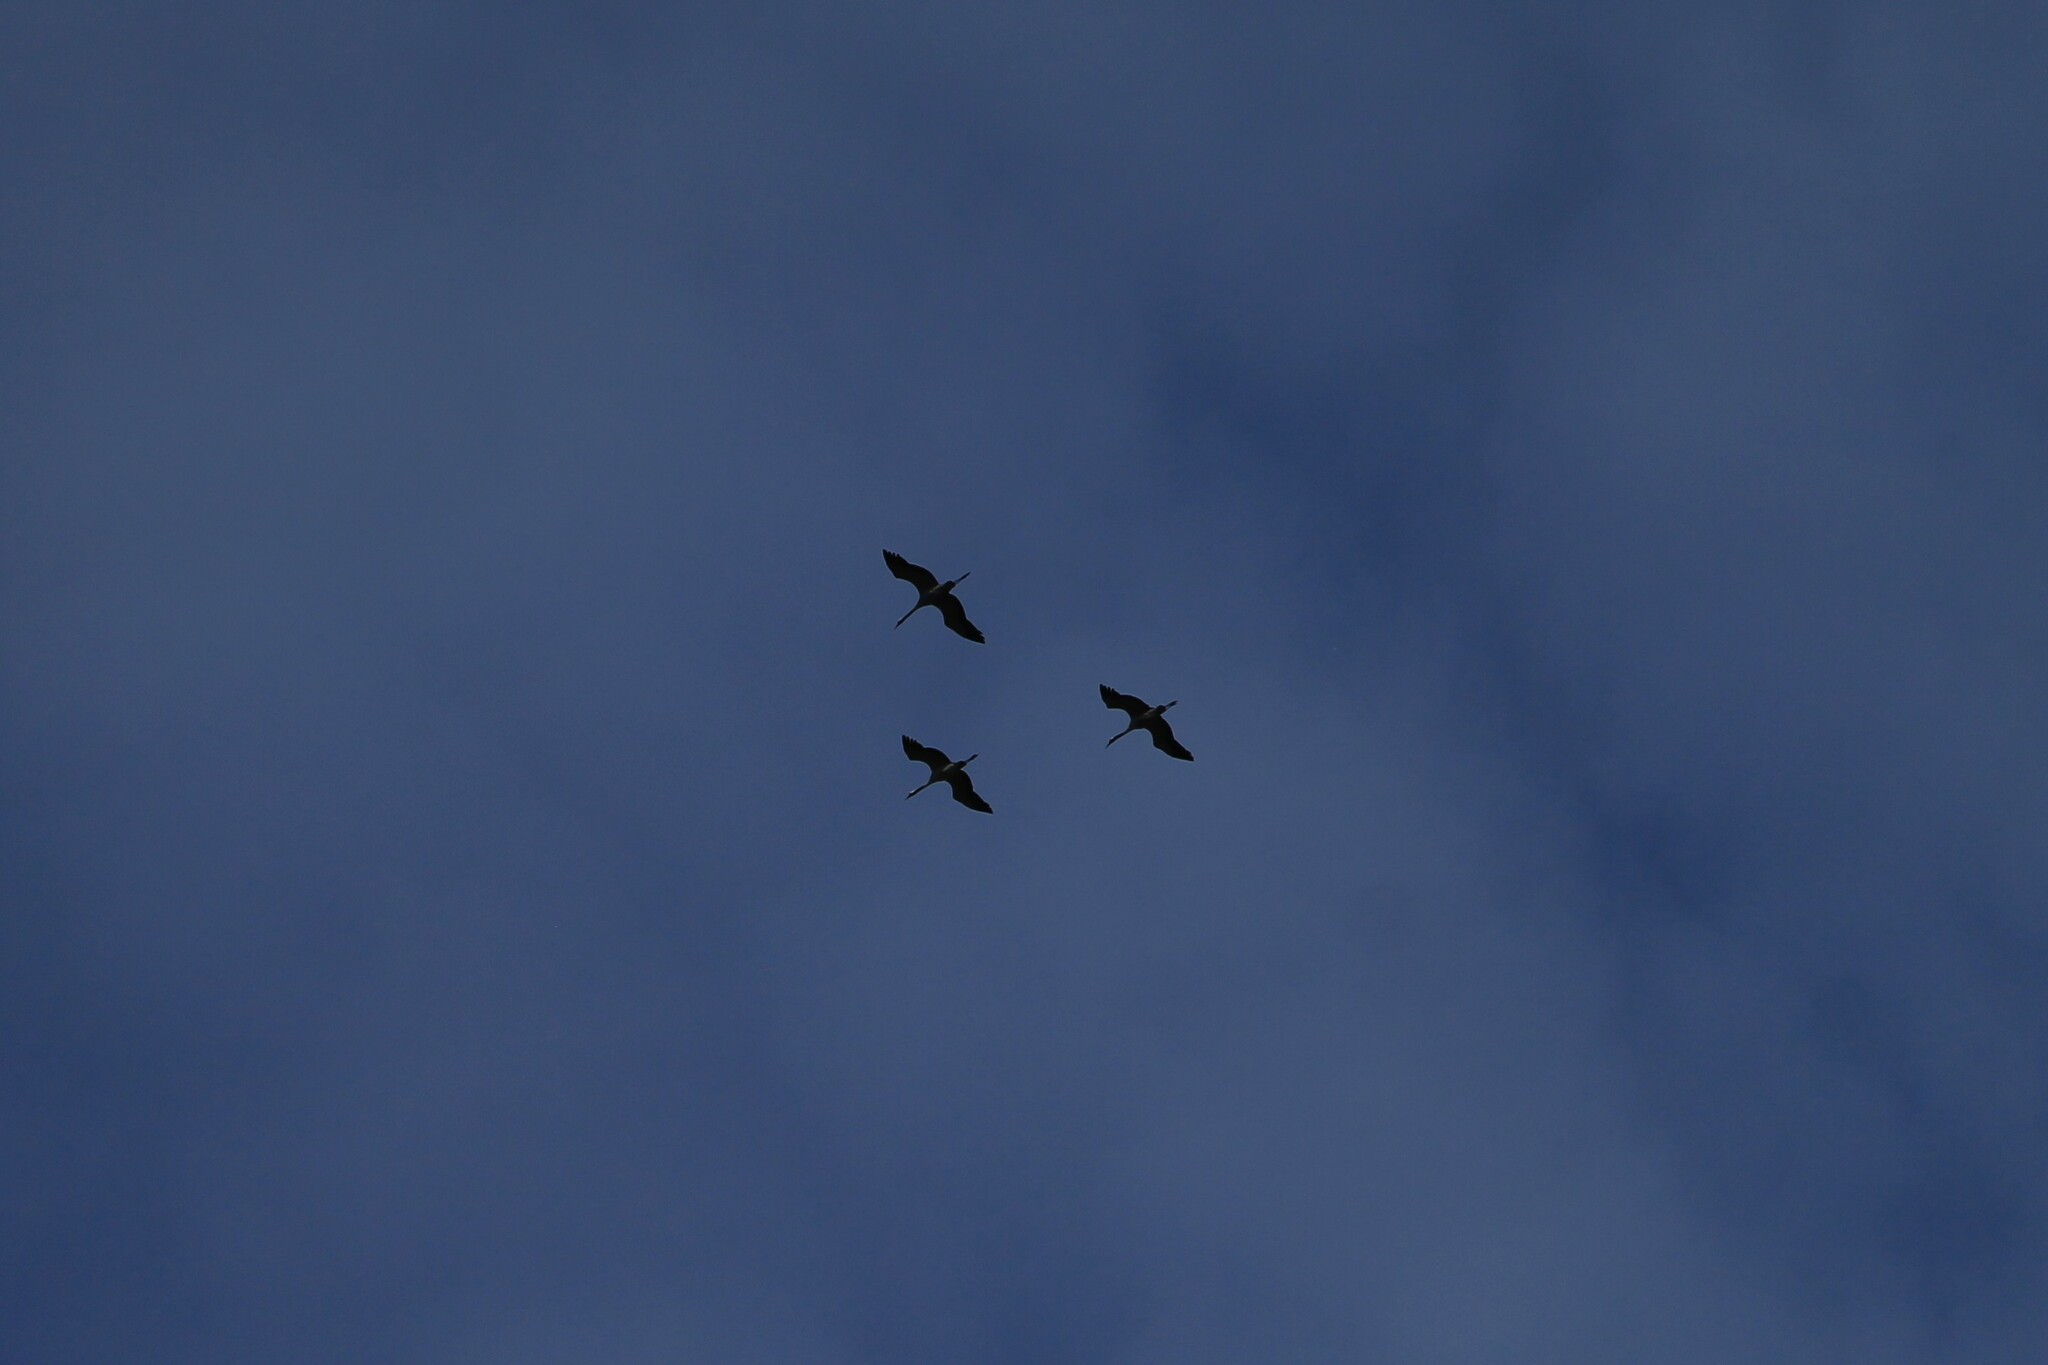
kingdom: Animalia
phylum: Chordata
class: Aves
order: Gruiformes
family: Gruidae
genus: Grus
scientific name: Grus grus
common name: Common crane
